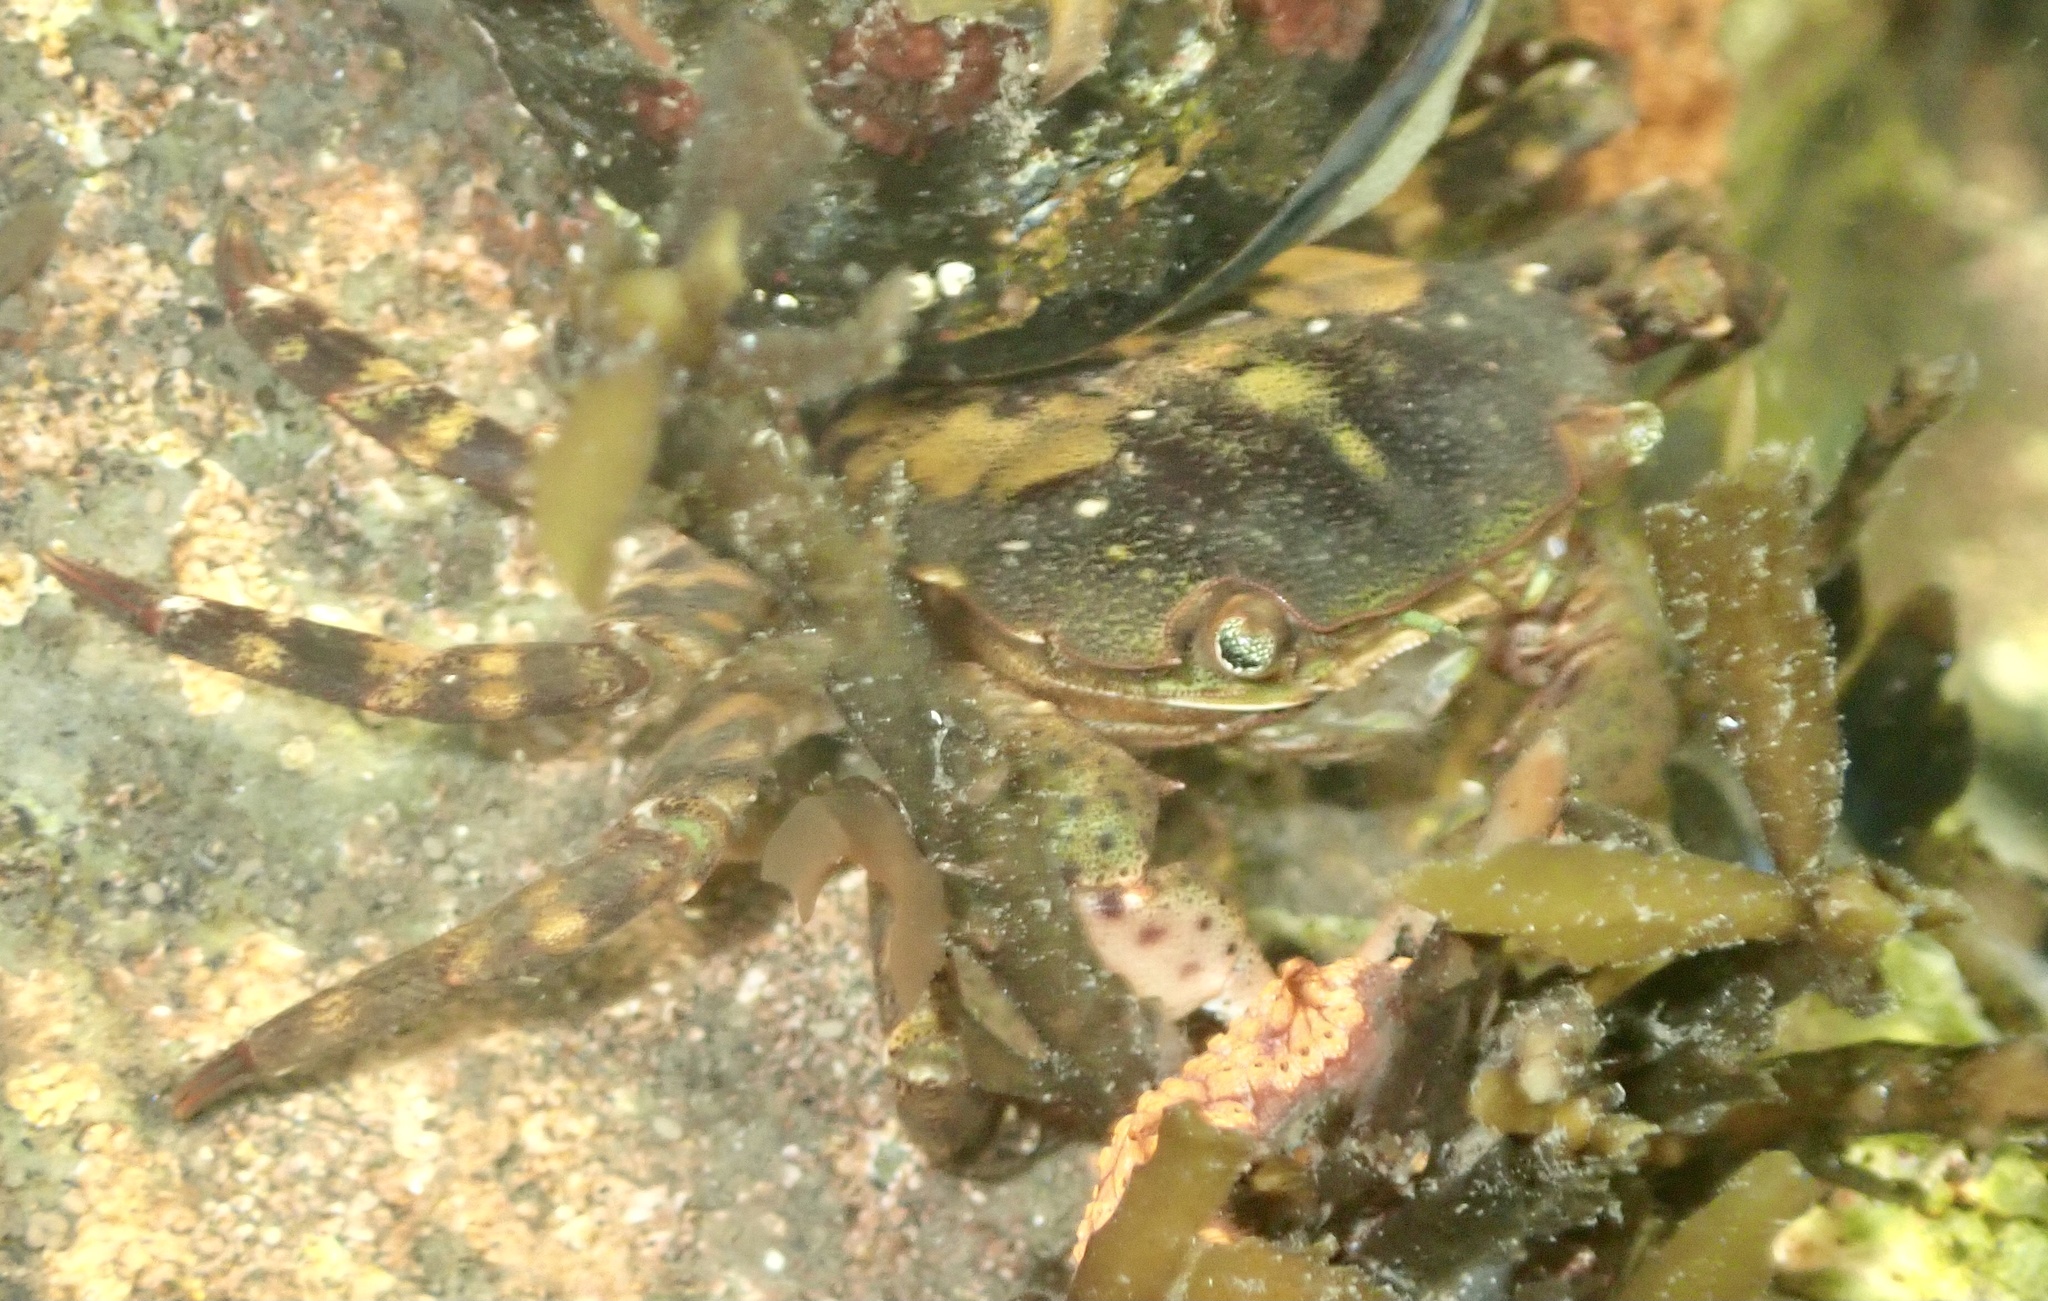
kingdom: Animalia
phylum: Arthropoda
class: Malacostraca
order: Decapoda
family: Varunidae
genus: Hemigrapsus
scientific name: Hemigrapsus sanguineus
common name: Asian shore crab
